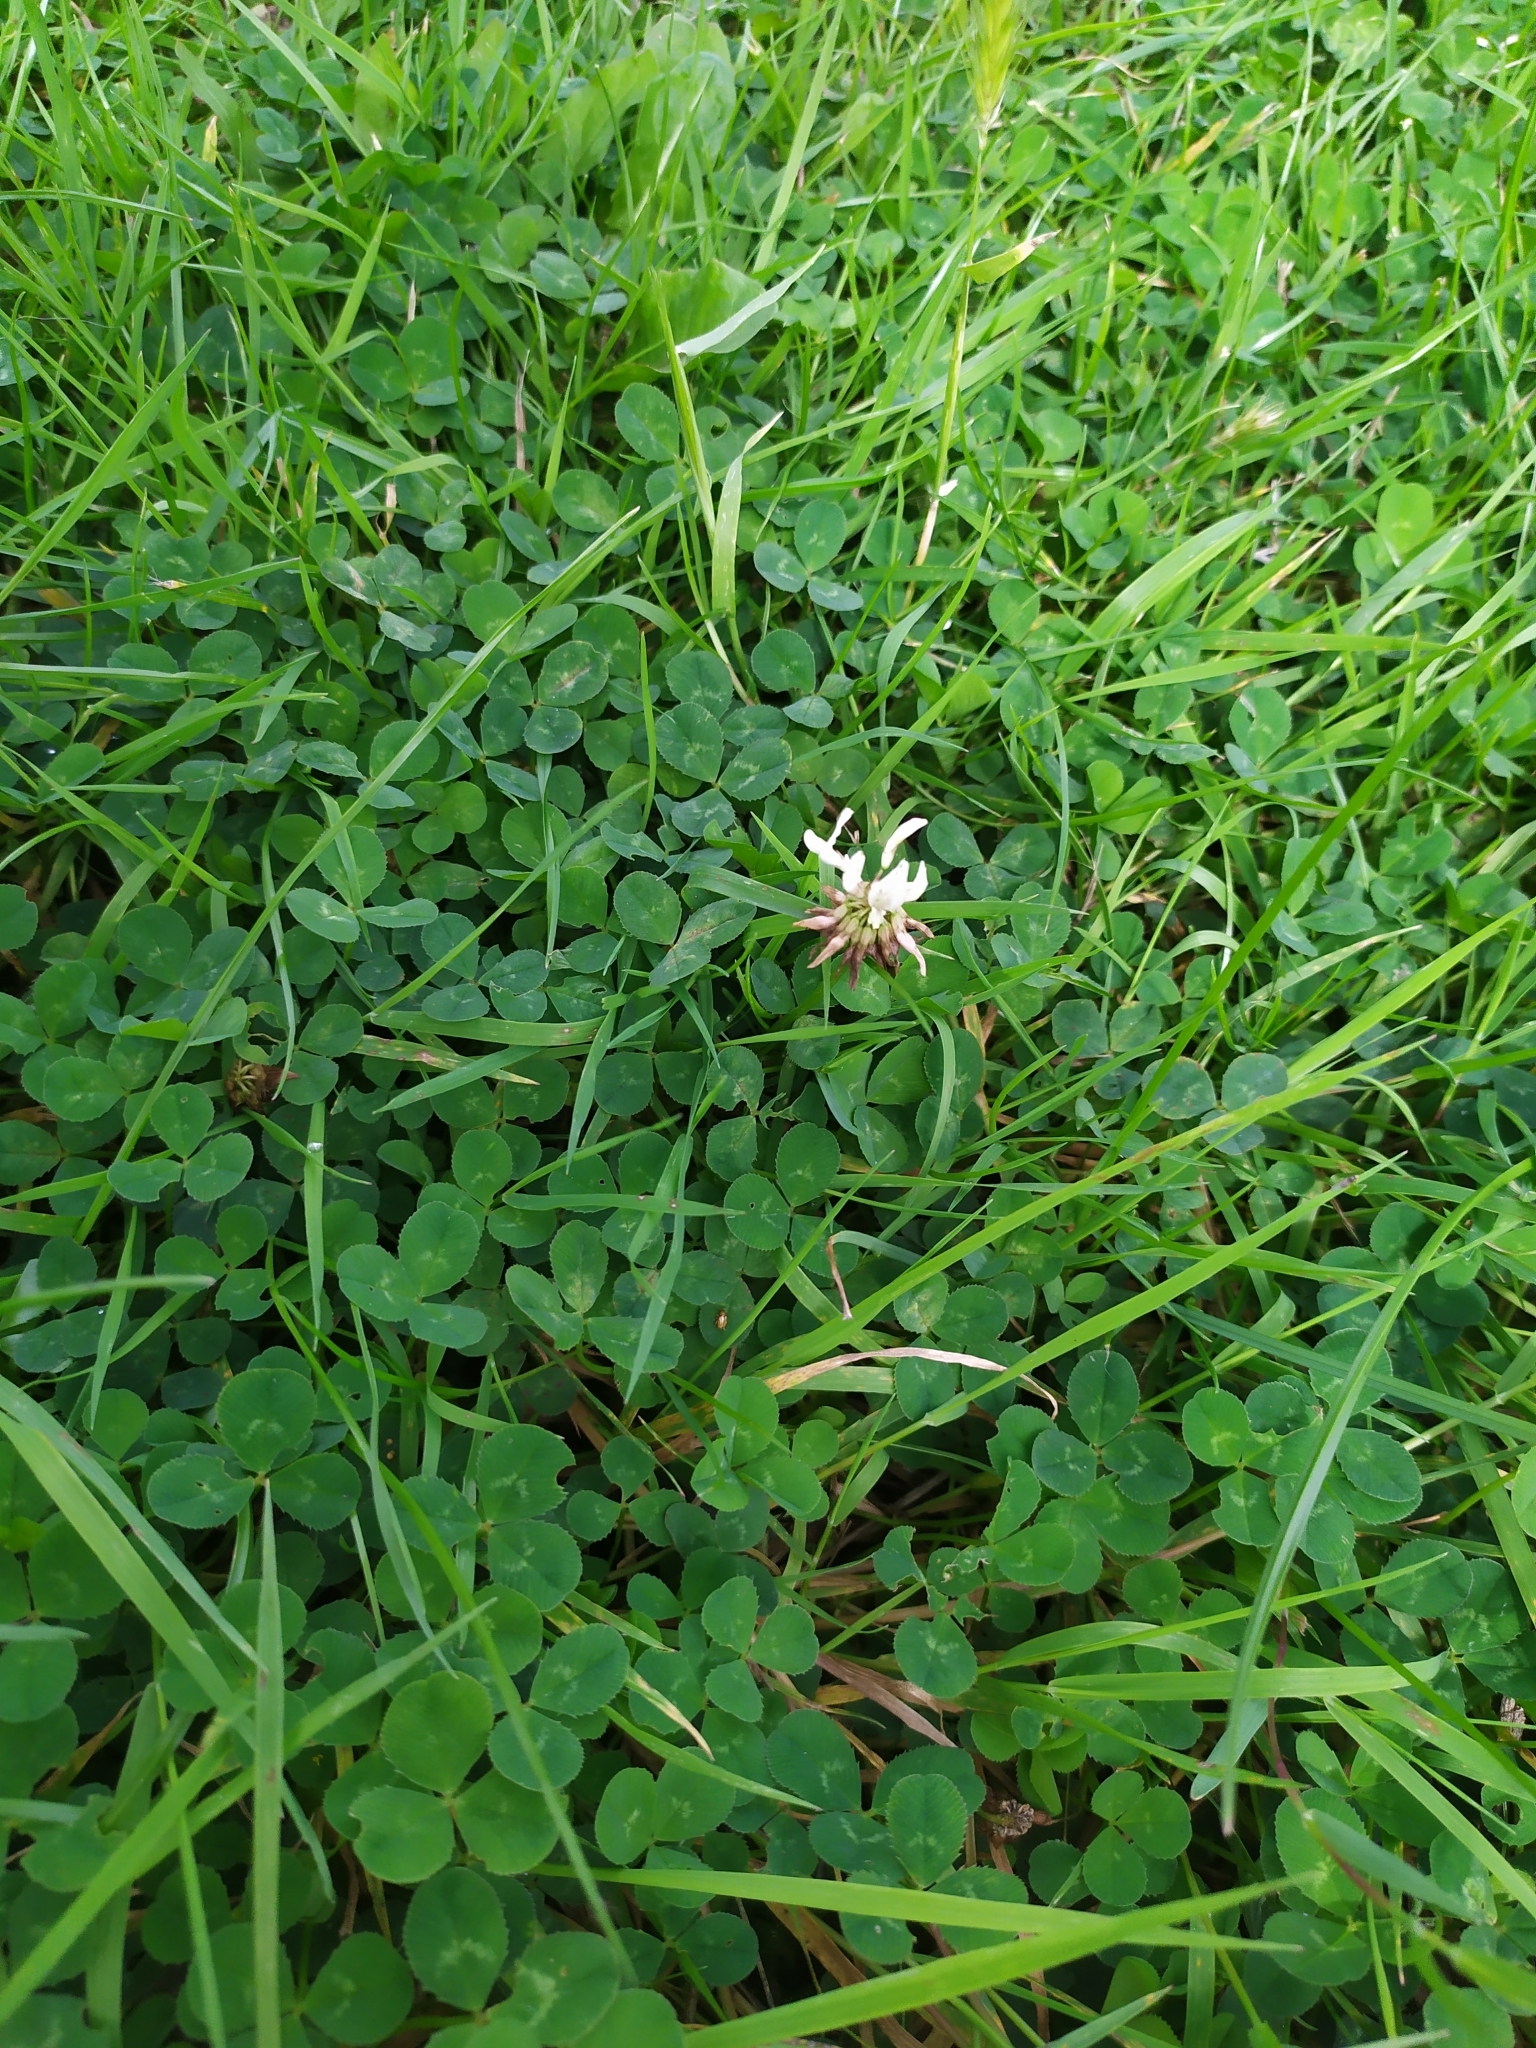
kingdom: Plantae
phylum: Tracheophyta
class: Magnoliopsida
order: Fabales
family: Fabaceae
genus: Trifolium
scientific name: Trifolium repens
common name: White clover
